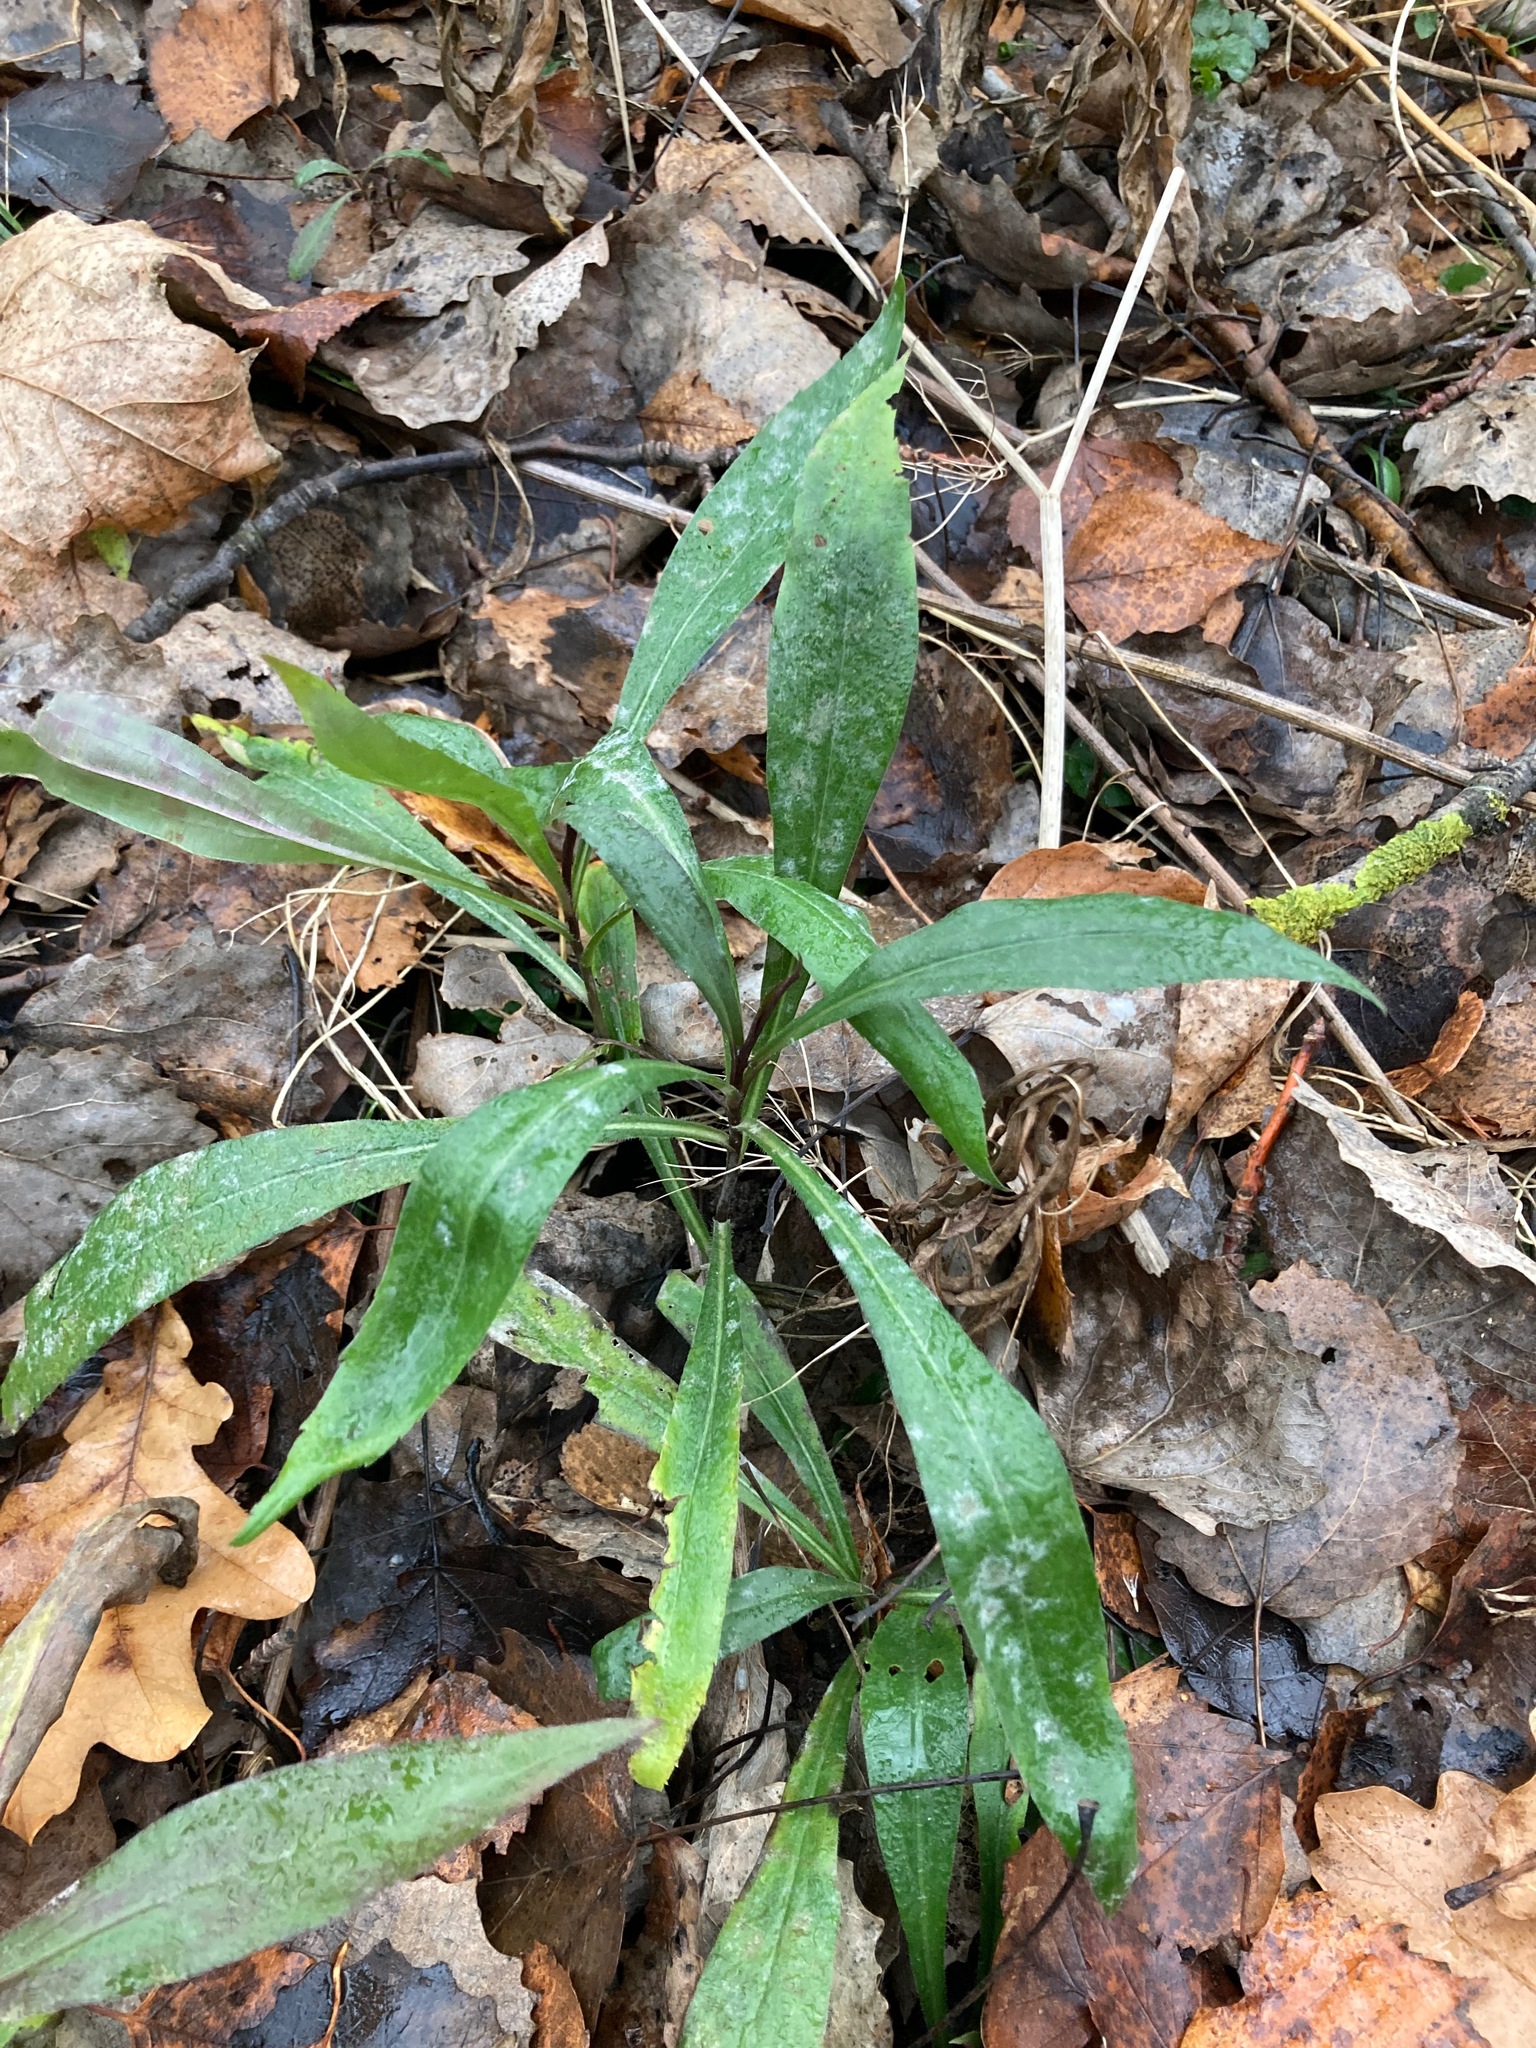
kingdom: Plantae
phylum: Tracheophyta
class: Magnoliopsida
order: Asterales
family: Asteraceae
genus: Solidago
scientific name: Solidago gigantea
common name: Giant goldenrod
